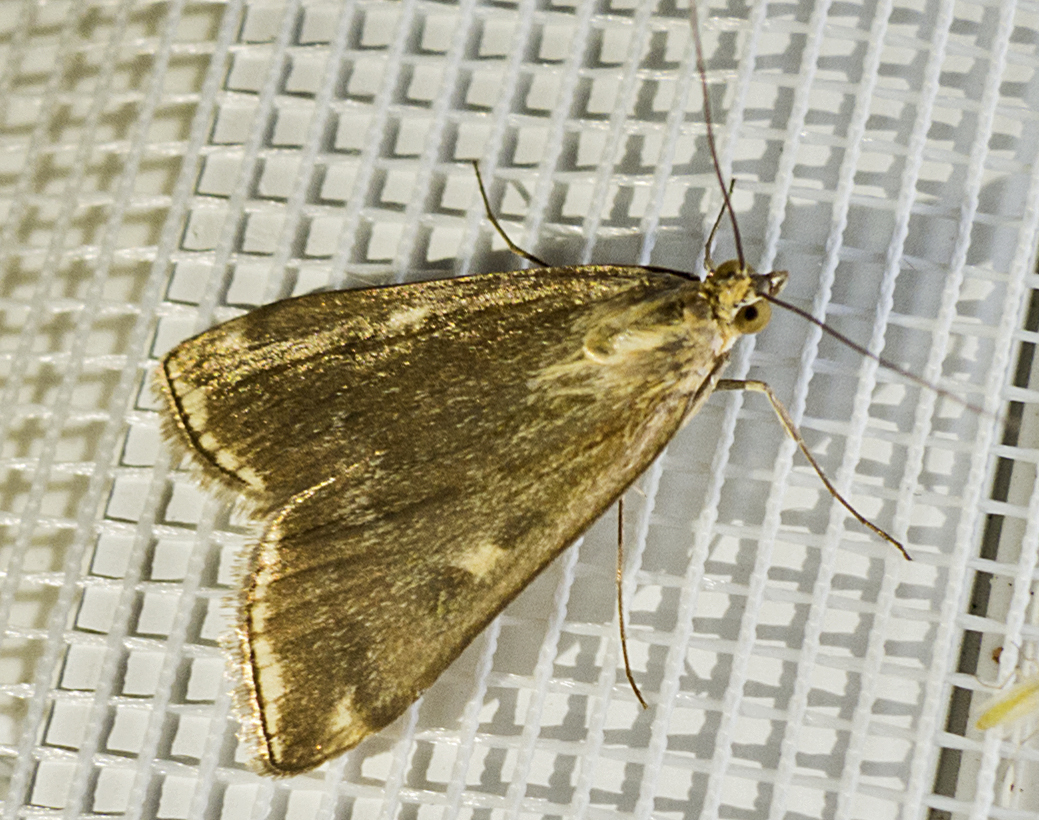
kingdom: Animalia
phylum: Arthropoda
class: Insecta
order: Lepidoptera
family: Crambidae
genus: Loxostege
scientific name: Loxostege sticticalis
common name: Crambid moth
